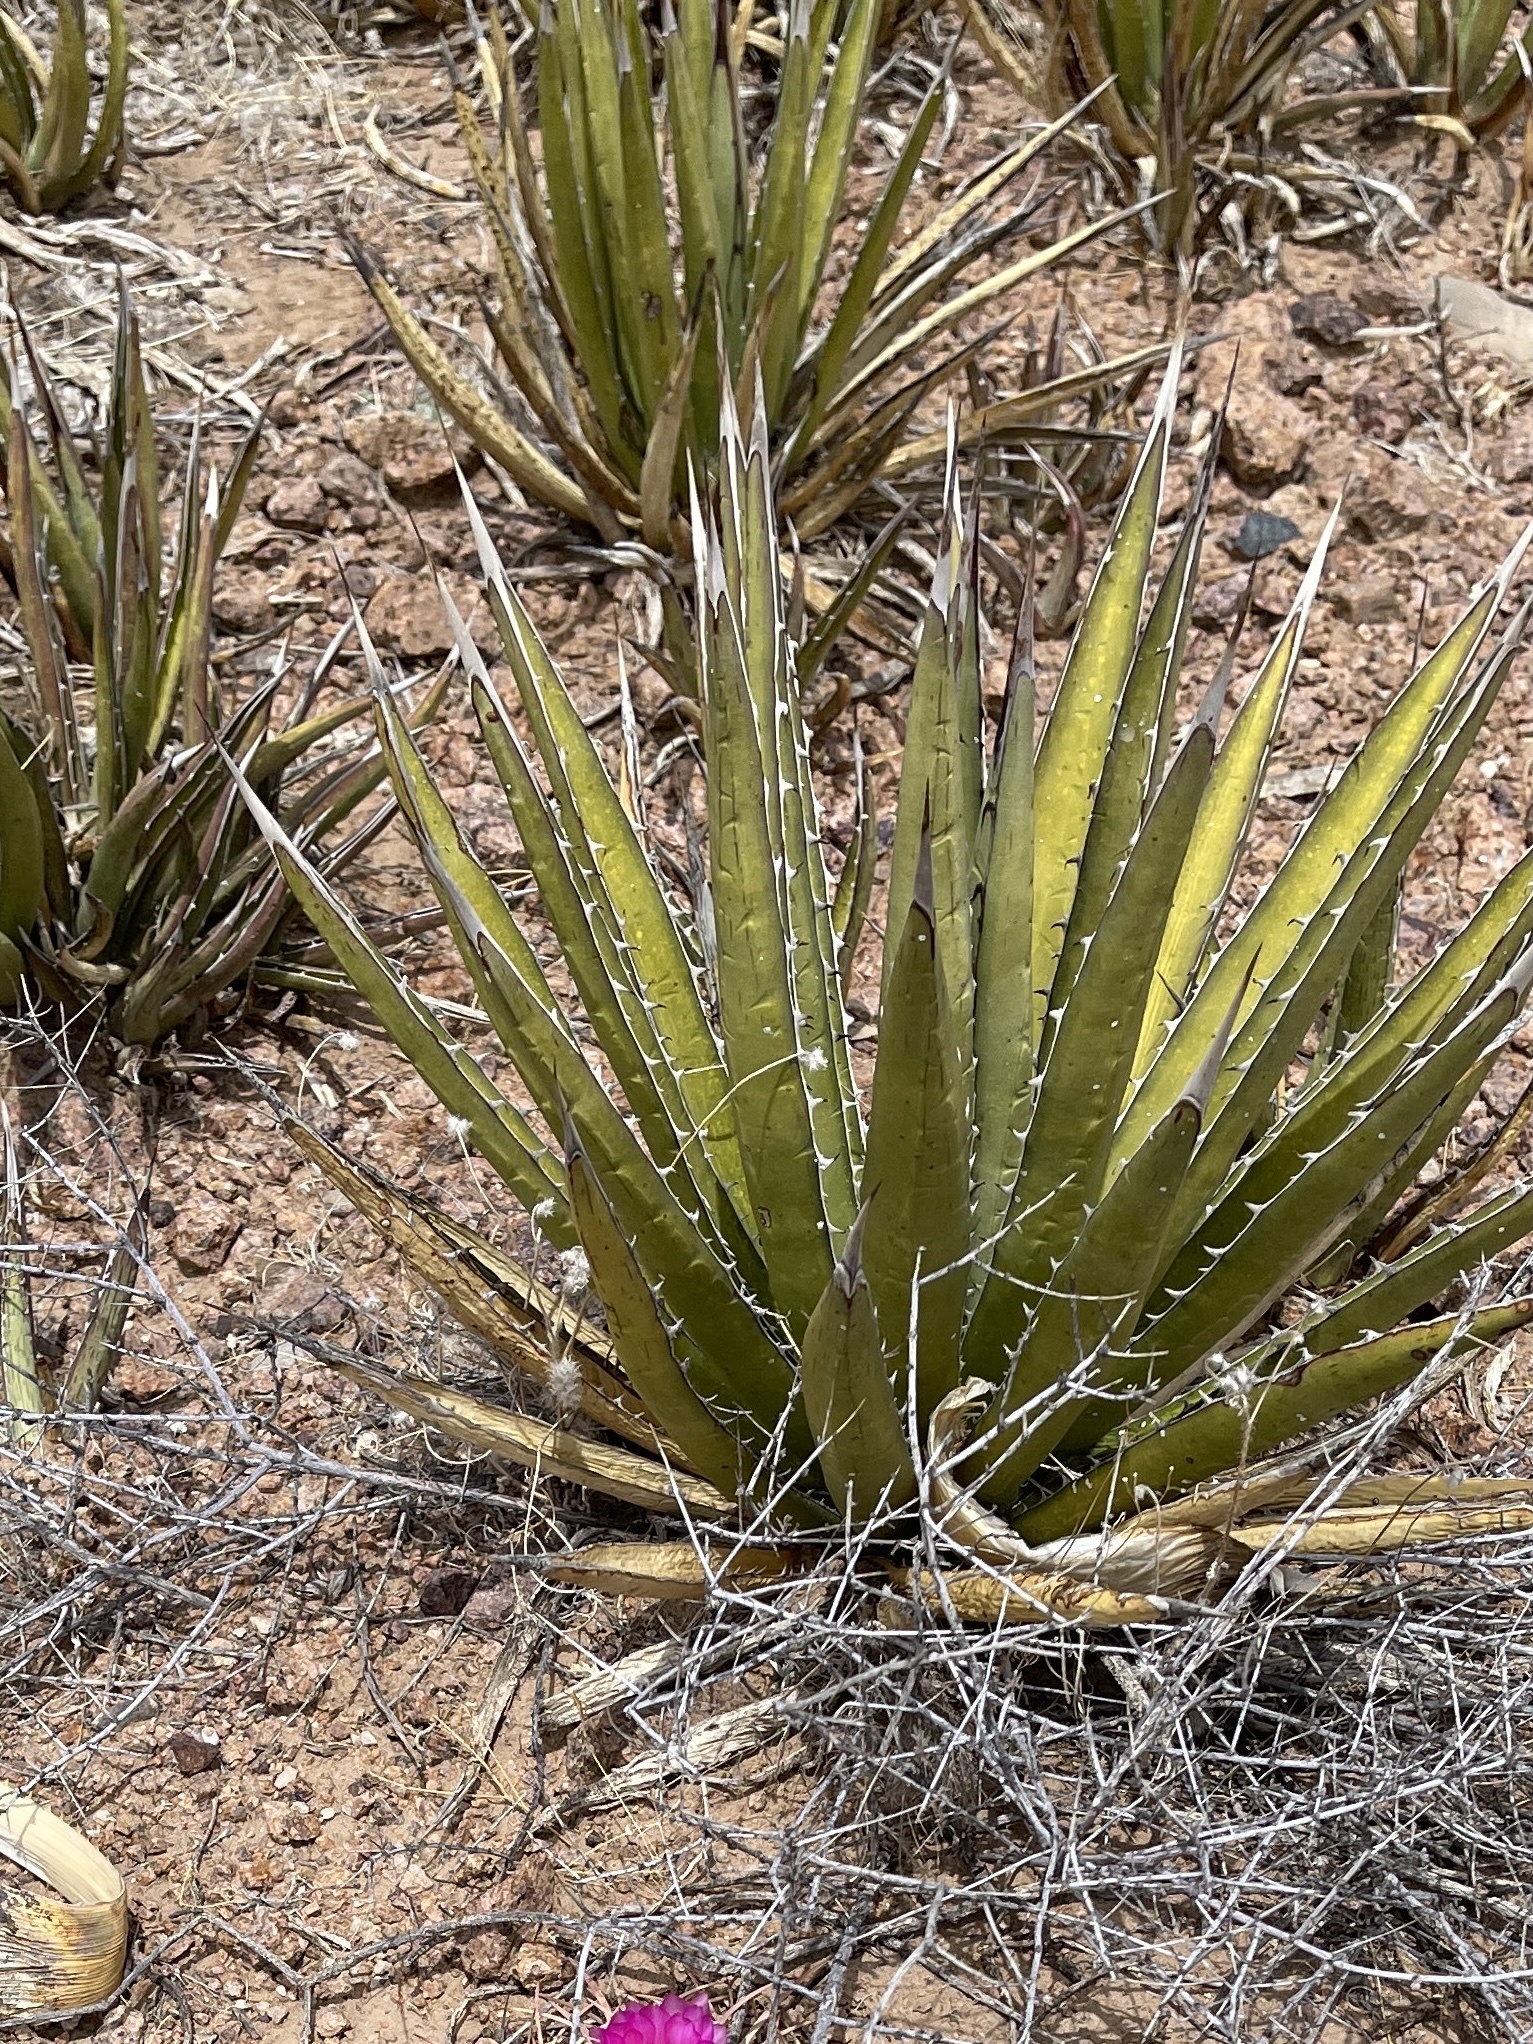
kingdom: Plantae
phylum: Tracheophyta
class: Liliopsida
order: Asparagales
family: Asparagaceae
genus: Agave
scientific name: Agave lechuguilla
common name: Lecheguilla agave
